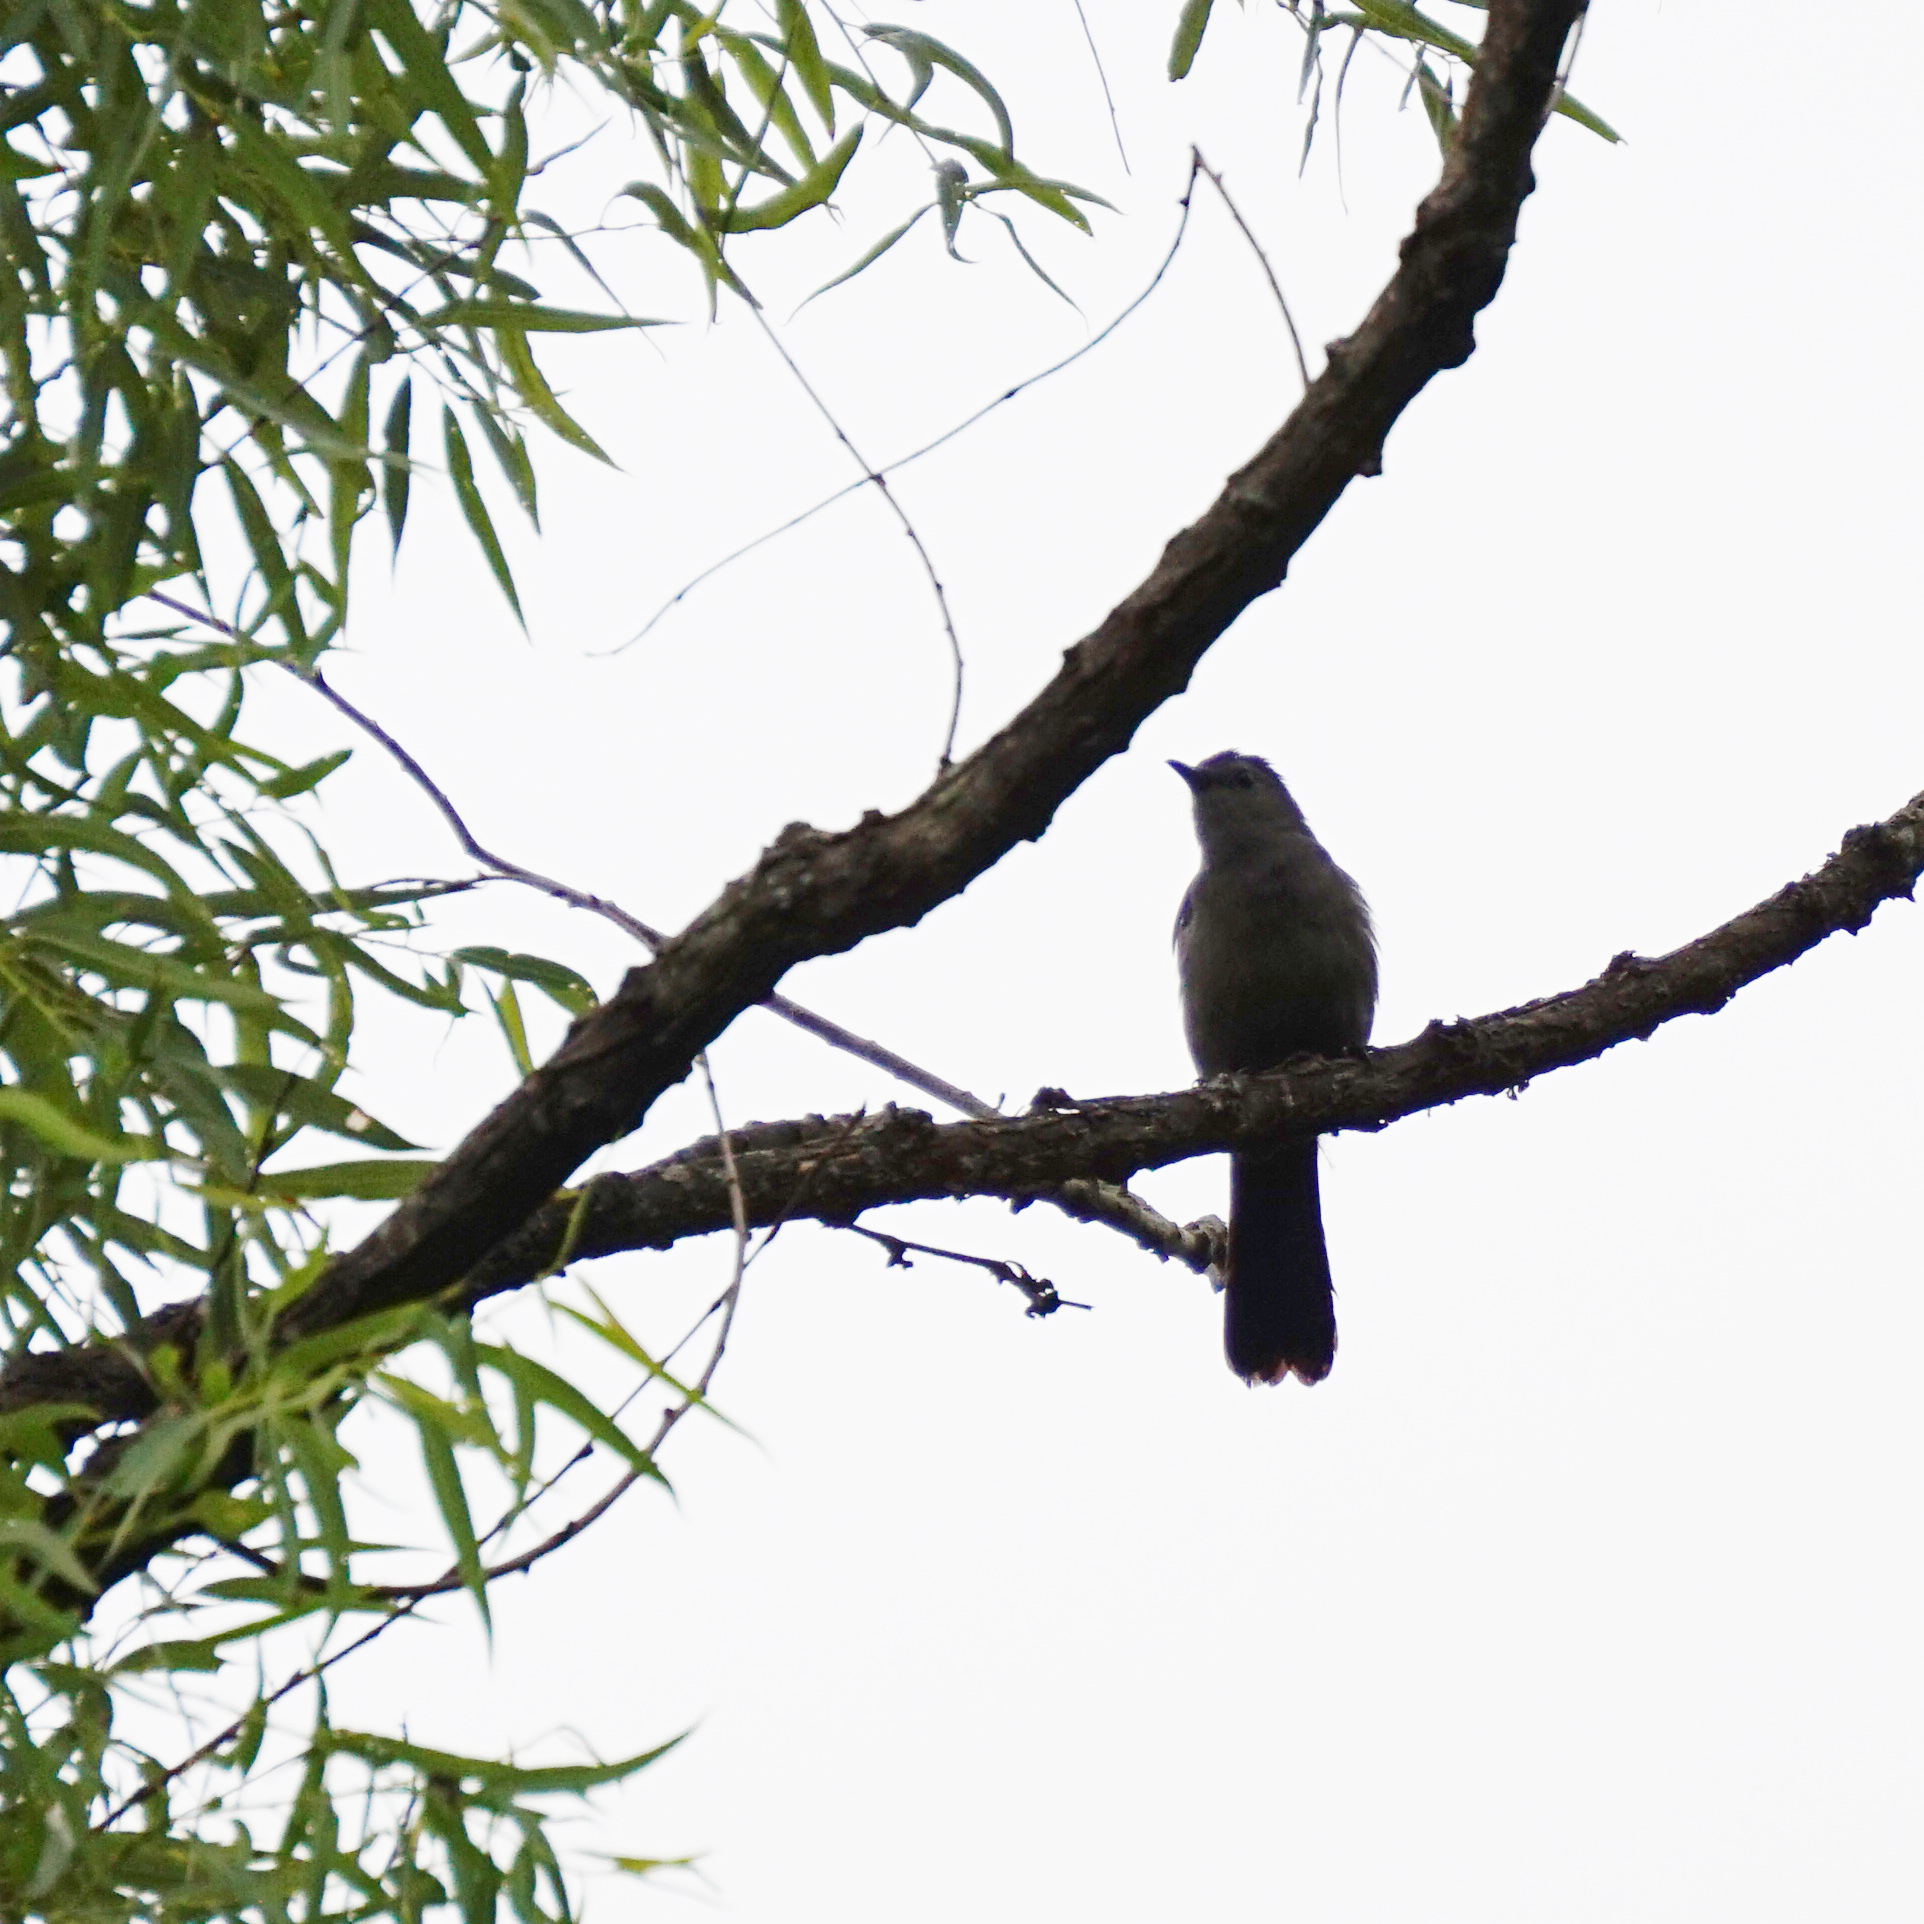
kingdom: Animalia
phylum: Chordata
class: Aves
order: Passeriformes
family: Mimidae
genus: Dumetella
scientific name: Dumetella carolinensis
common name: Gray catbird
